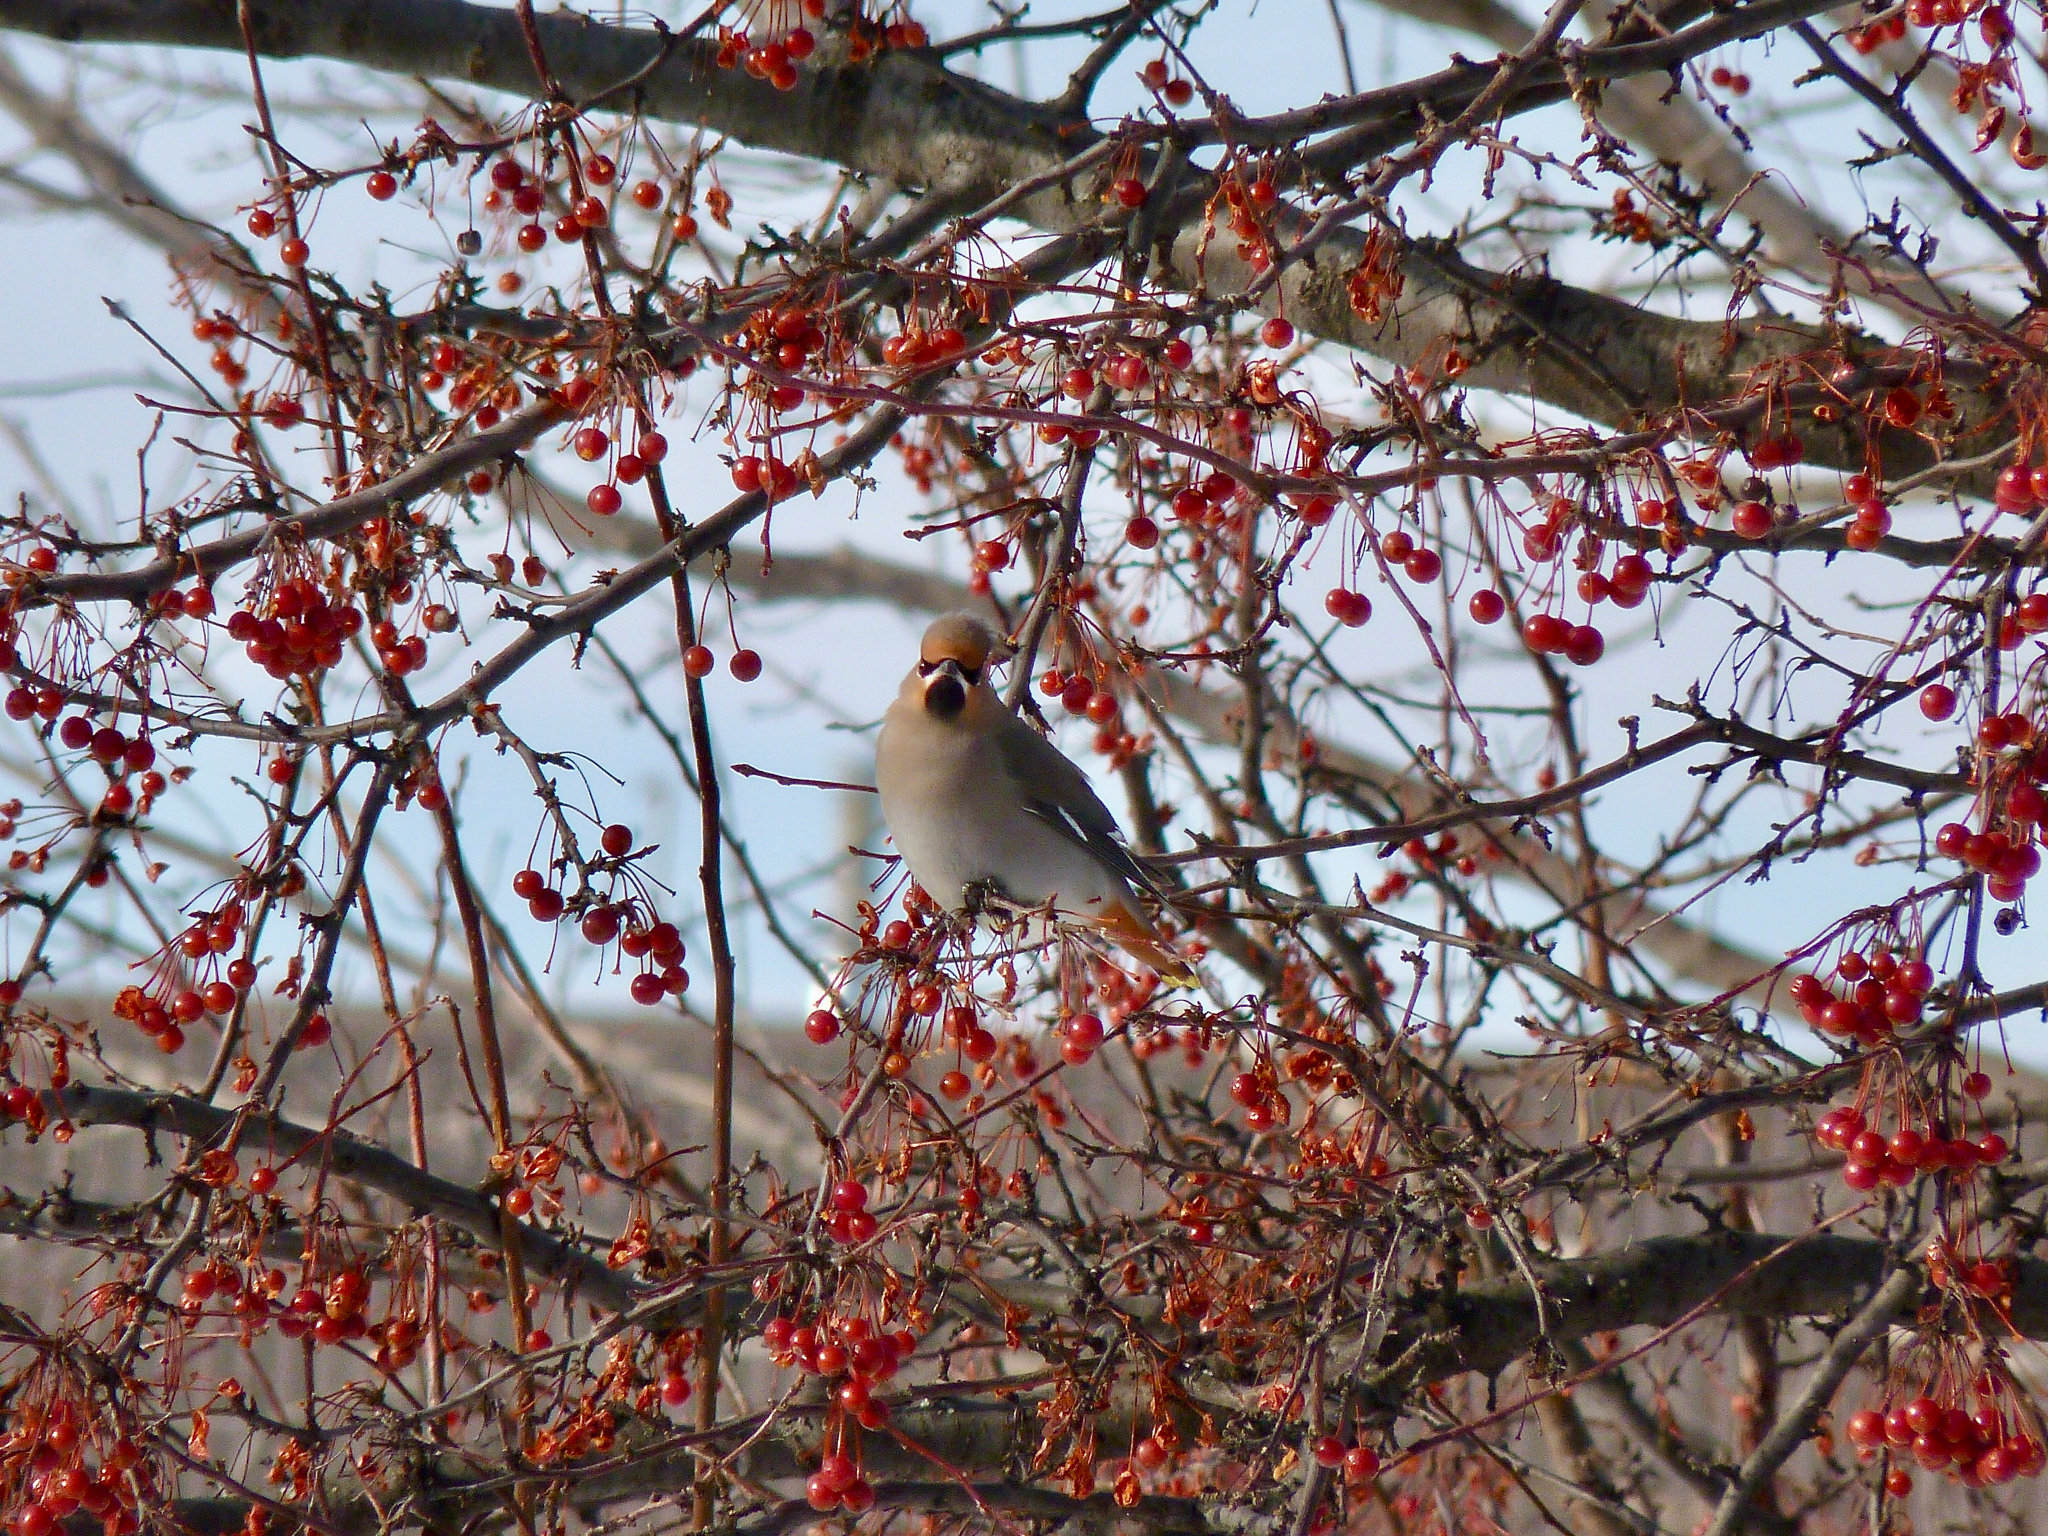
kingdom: Animalia
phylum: Chordata
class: Aves
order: Passeriformes
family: Bombycillidae
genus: Bombycilla
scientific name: Bombycilla garrulus
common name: Bohemian waxwing
